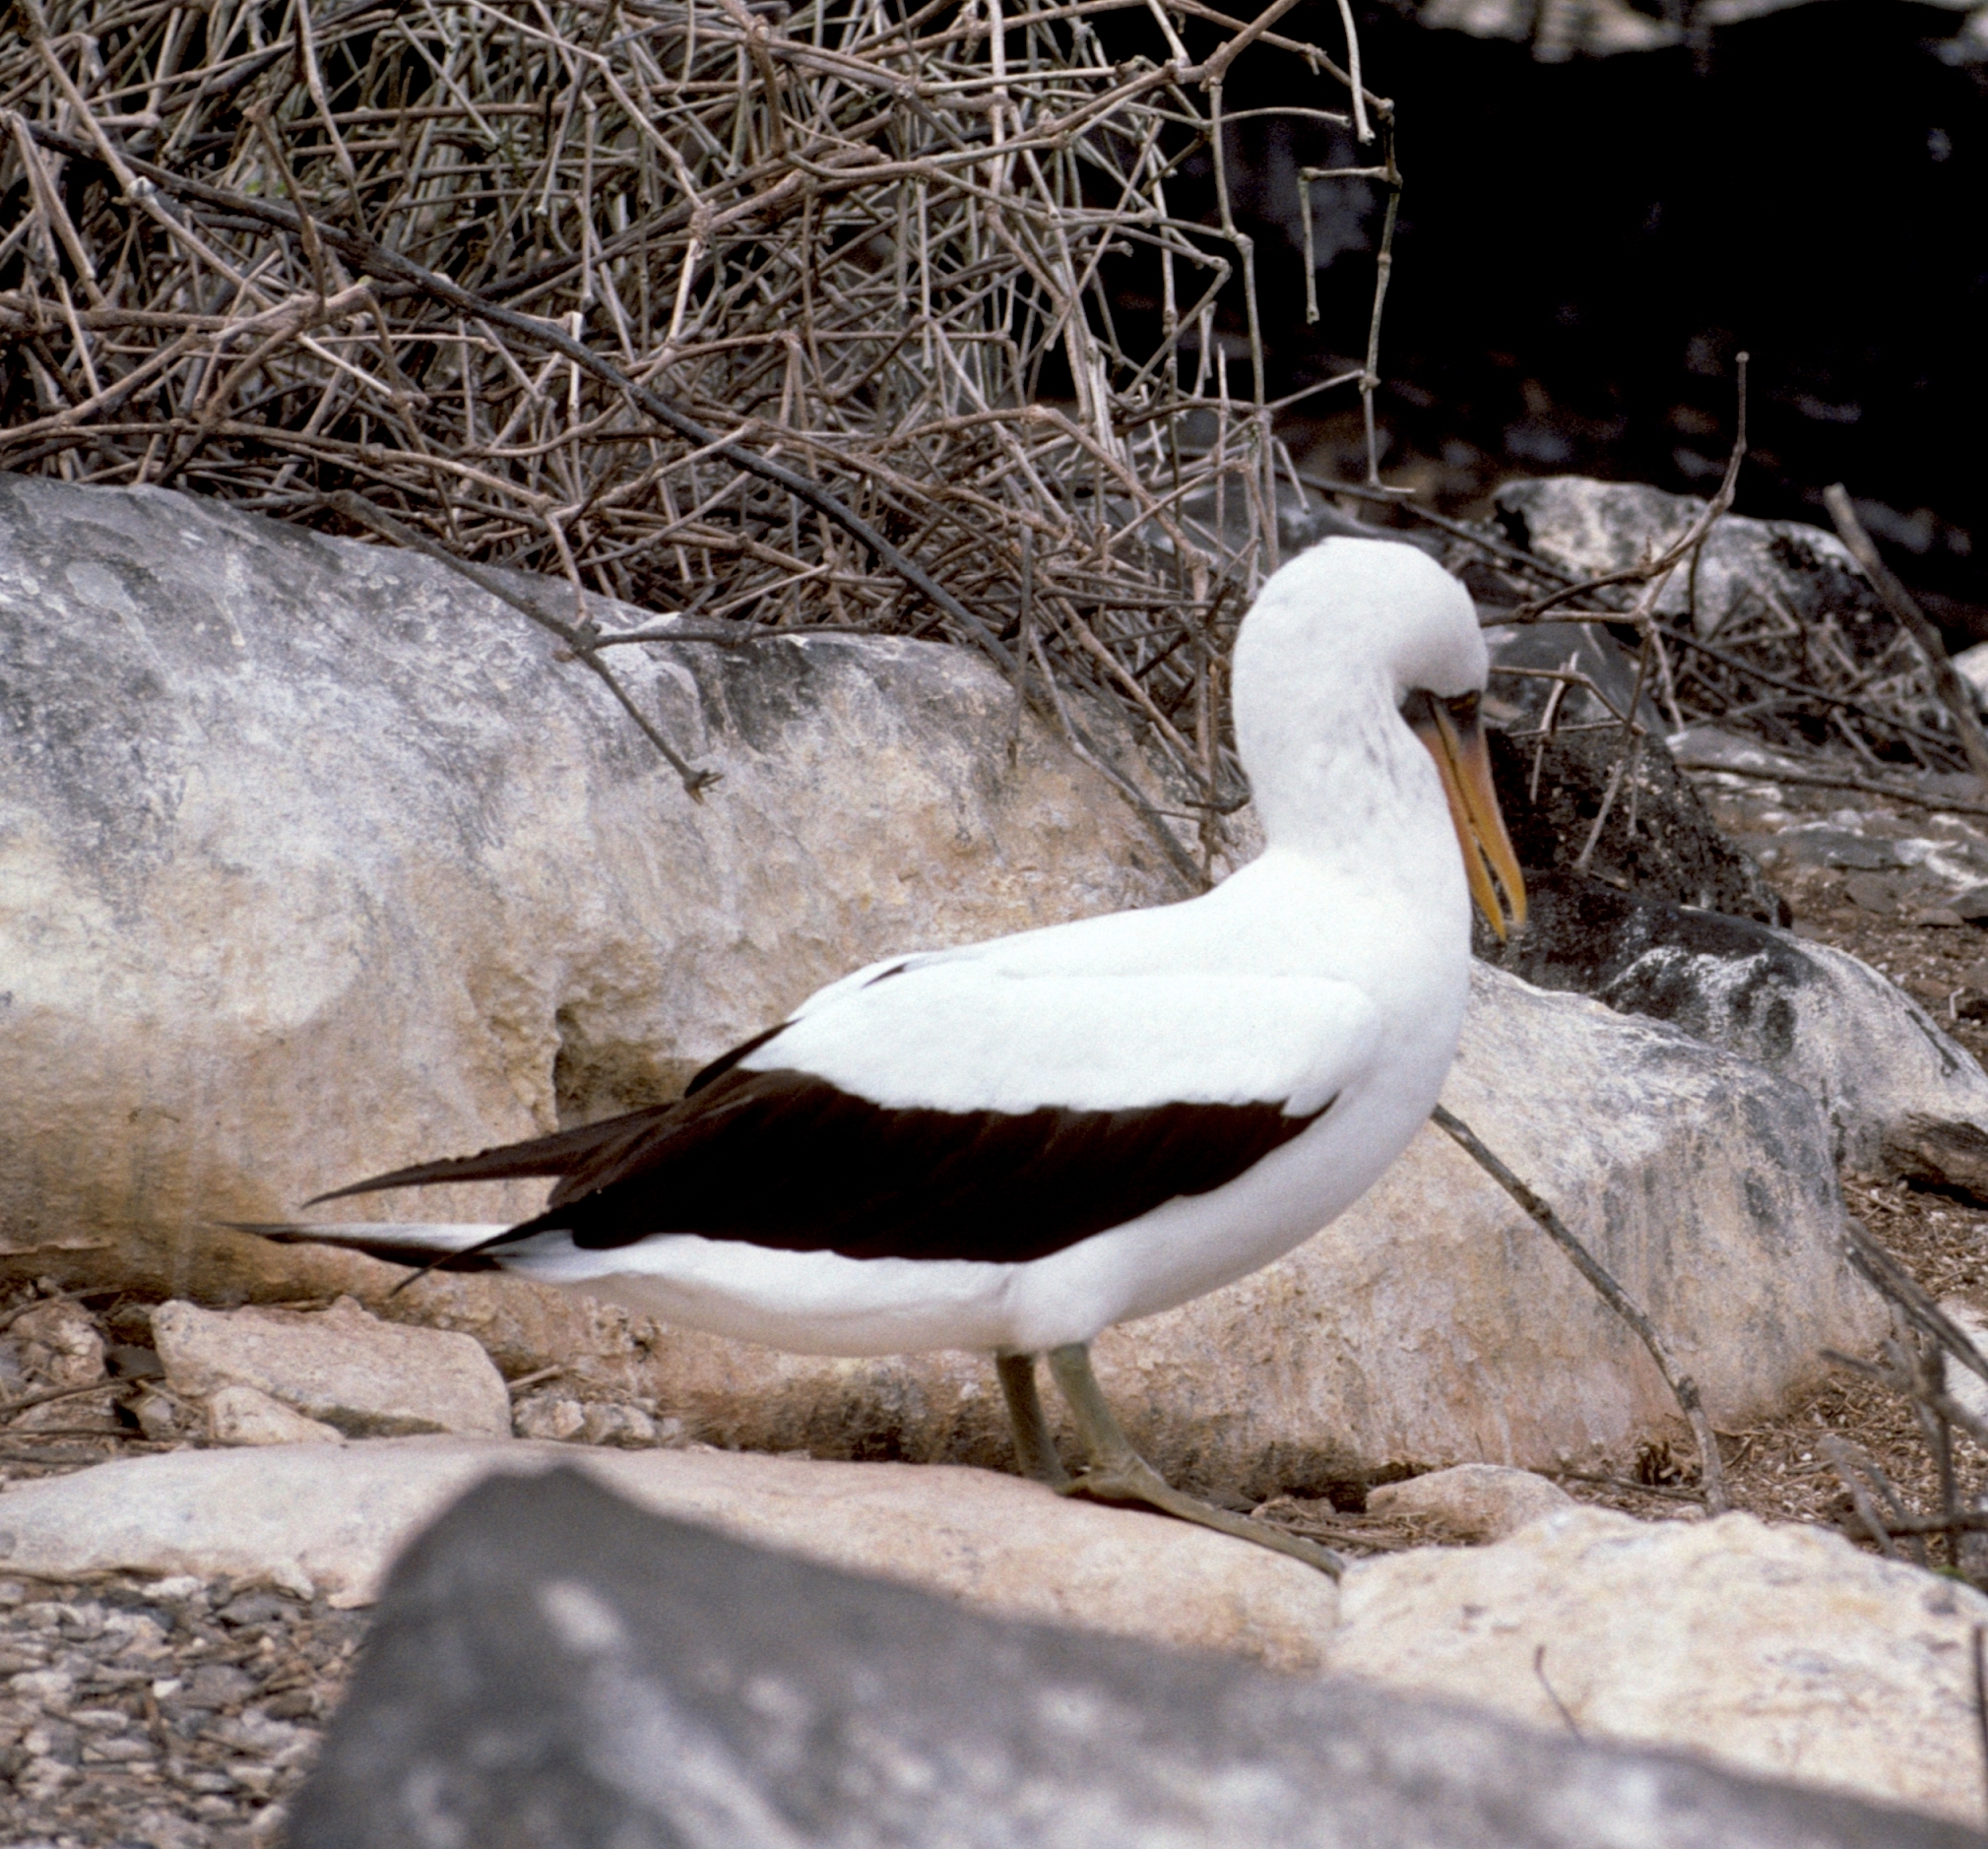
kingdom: Animalia
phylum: Chordata
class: Aves
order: Suliformes
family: Sulidae
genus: Sula
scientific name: Sula granti
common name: Nazca booby
